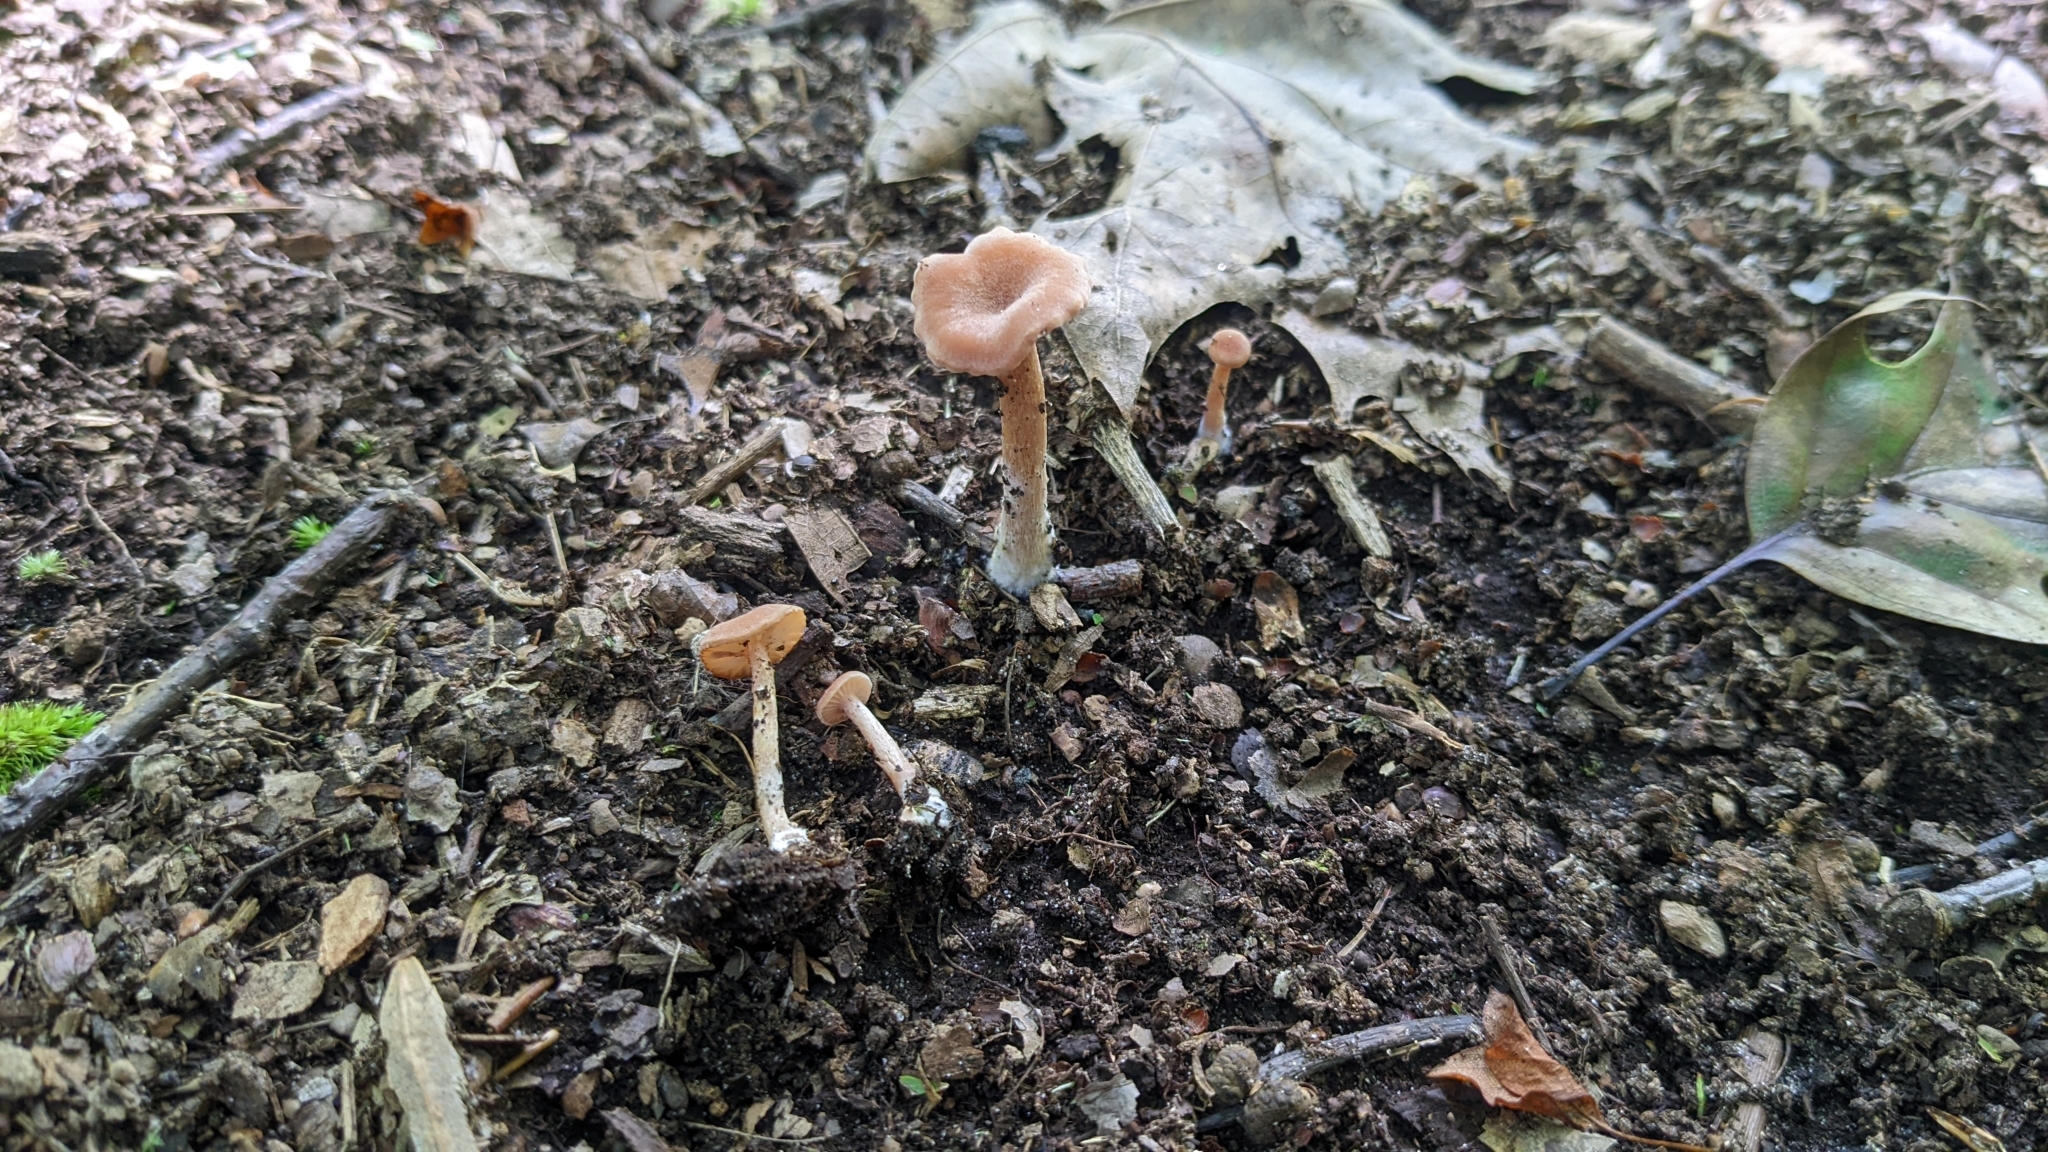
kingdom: Fungi
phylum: Basidiomycota
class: Agaricomycetes
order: Agaricales
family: Hydnangiaceae
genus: Laccaria
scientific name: Laccaria laccata
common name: Deceiver
